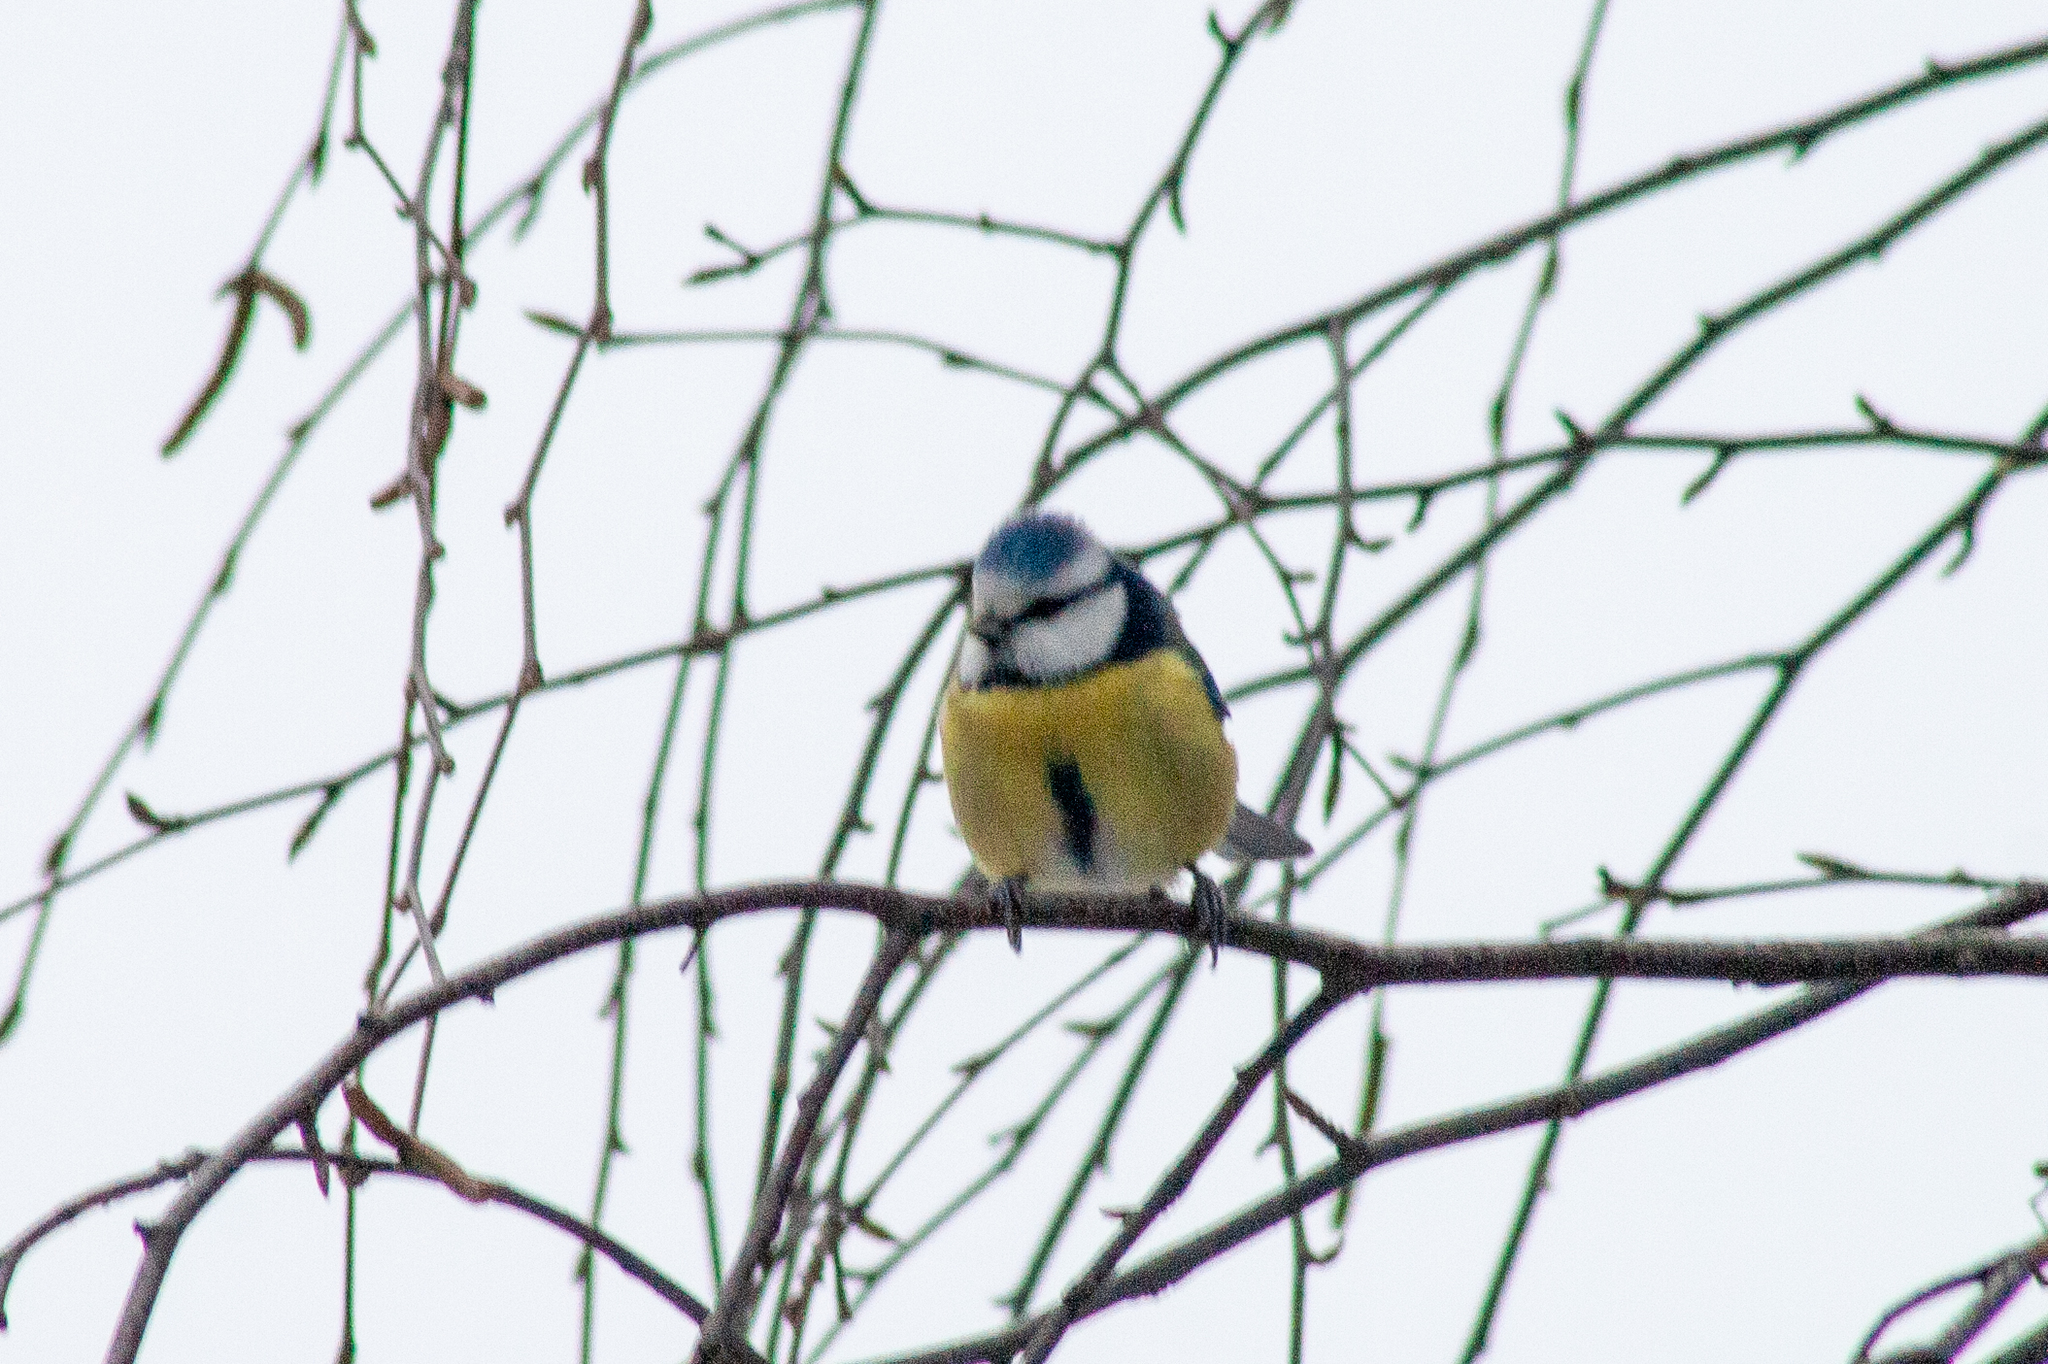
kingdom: Animalia
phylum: Chordata
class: Aves
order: Passeriformes
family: Paridae
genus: Cyanistes
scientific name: Cyanistes caeruleus
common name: Eurasian blue tit
